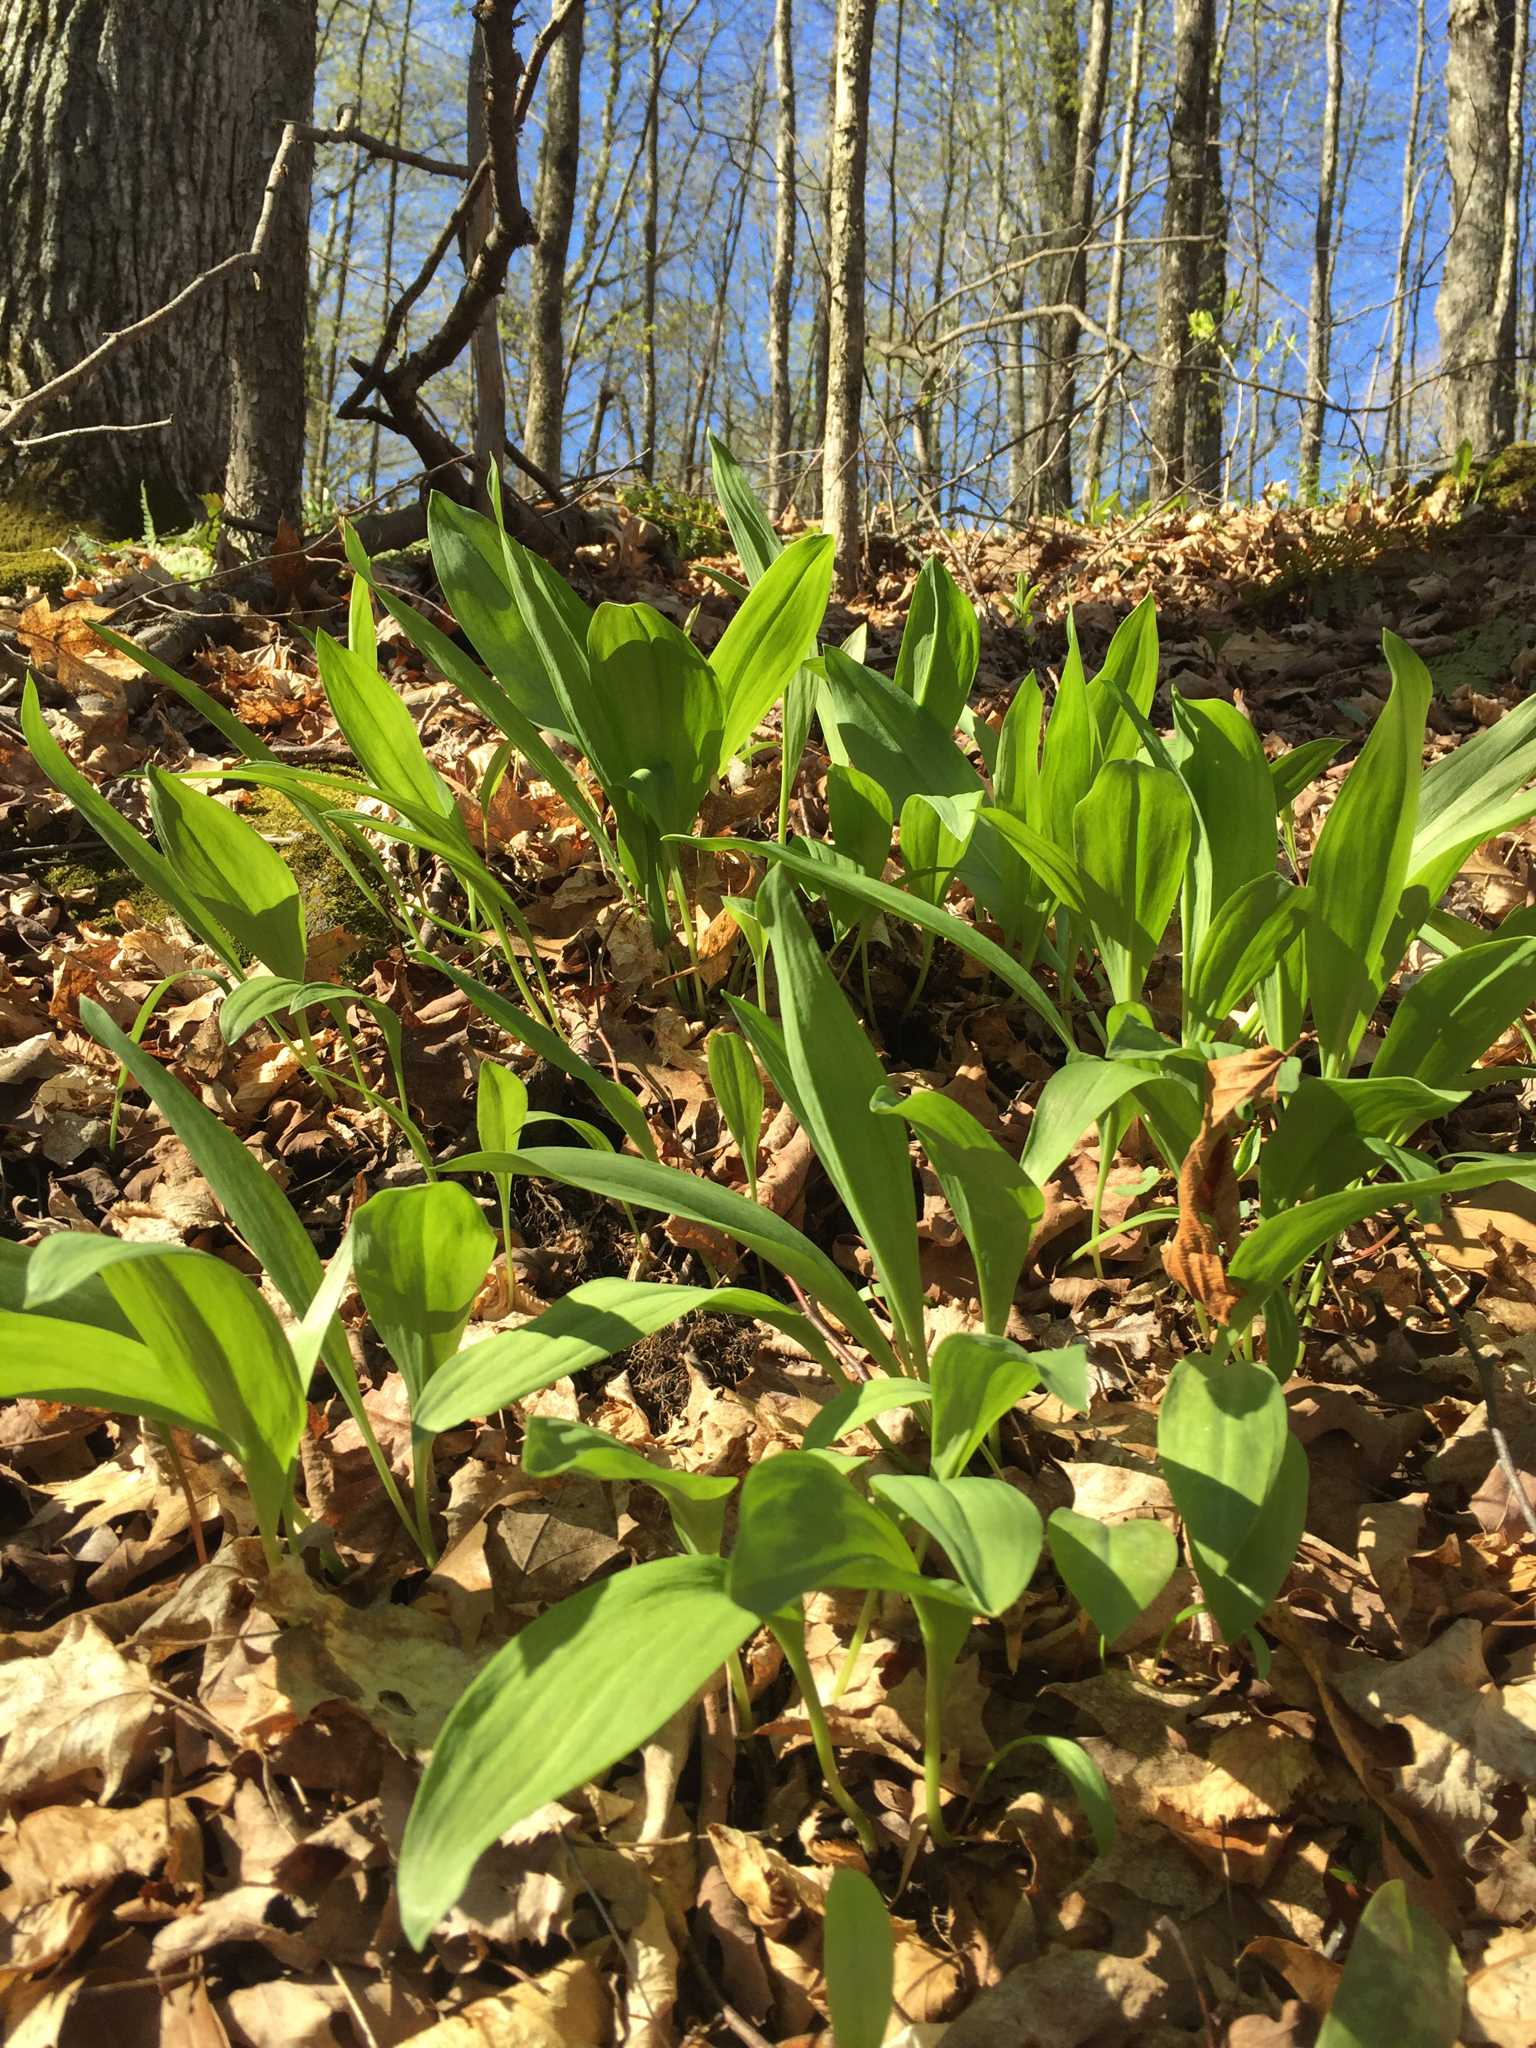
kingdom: Plantae
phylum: Tracheophyta
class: Liliopsida
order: Asparagales
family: Amaryllidaceae
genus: Allium
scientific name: Allium tricoccum
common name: Ramp
